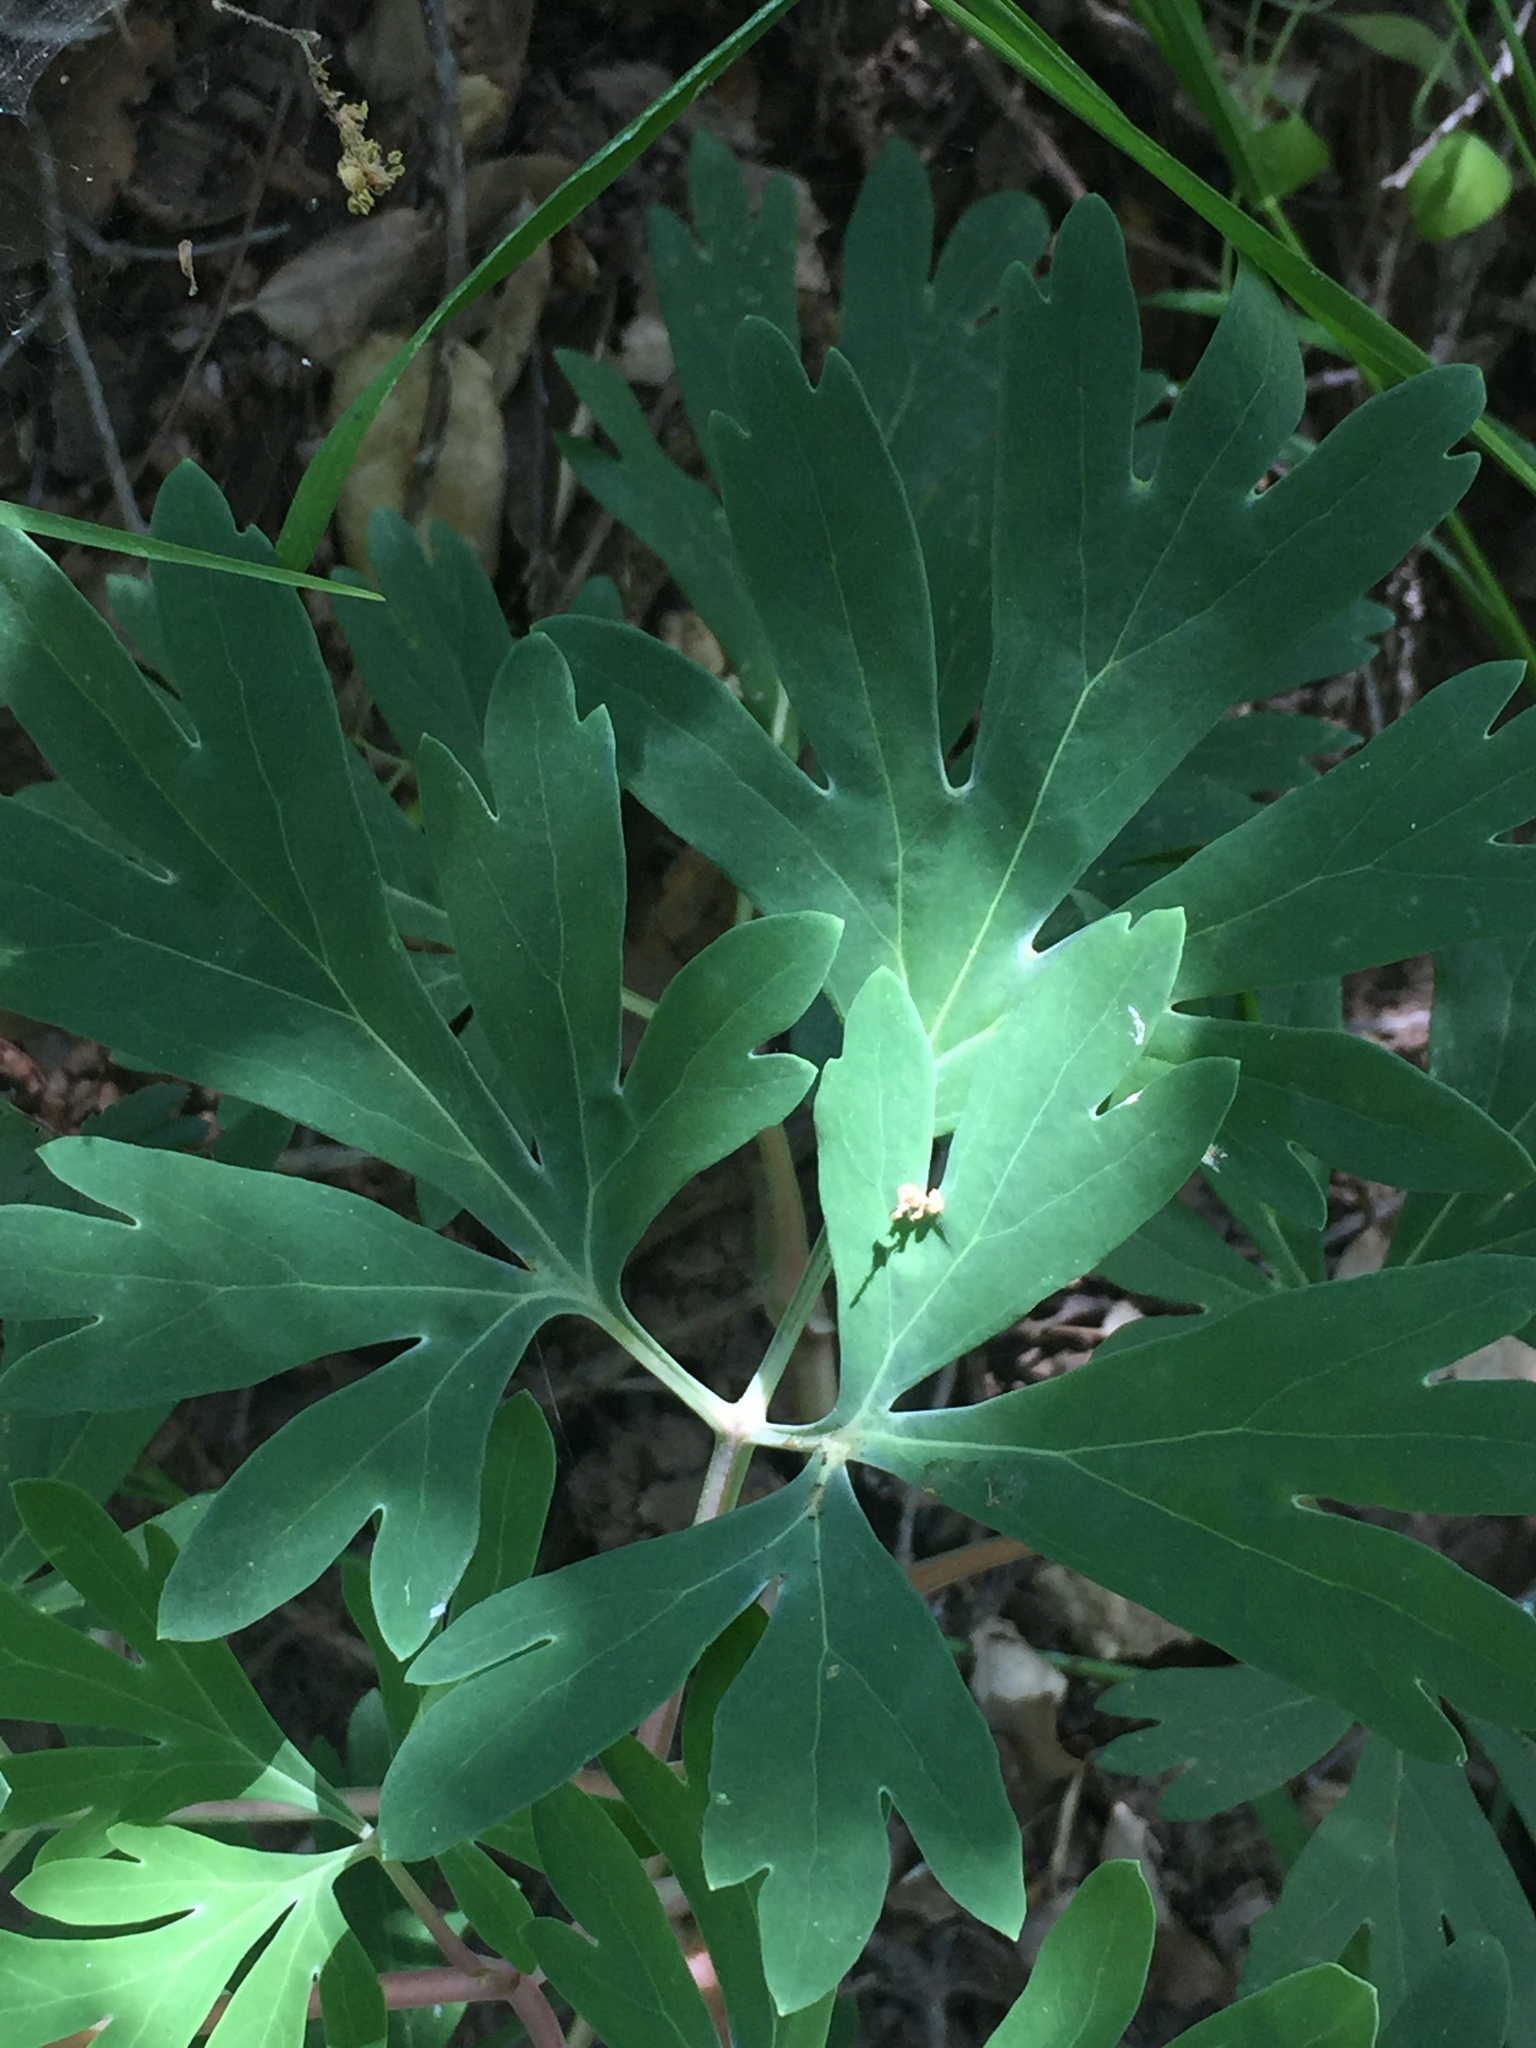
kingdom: Plantae
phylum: Tracheophyta
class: Magnoliopsida
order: Saxifragales
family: Paeoniaceae
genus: Paeonia
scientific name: Paeonia californica
